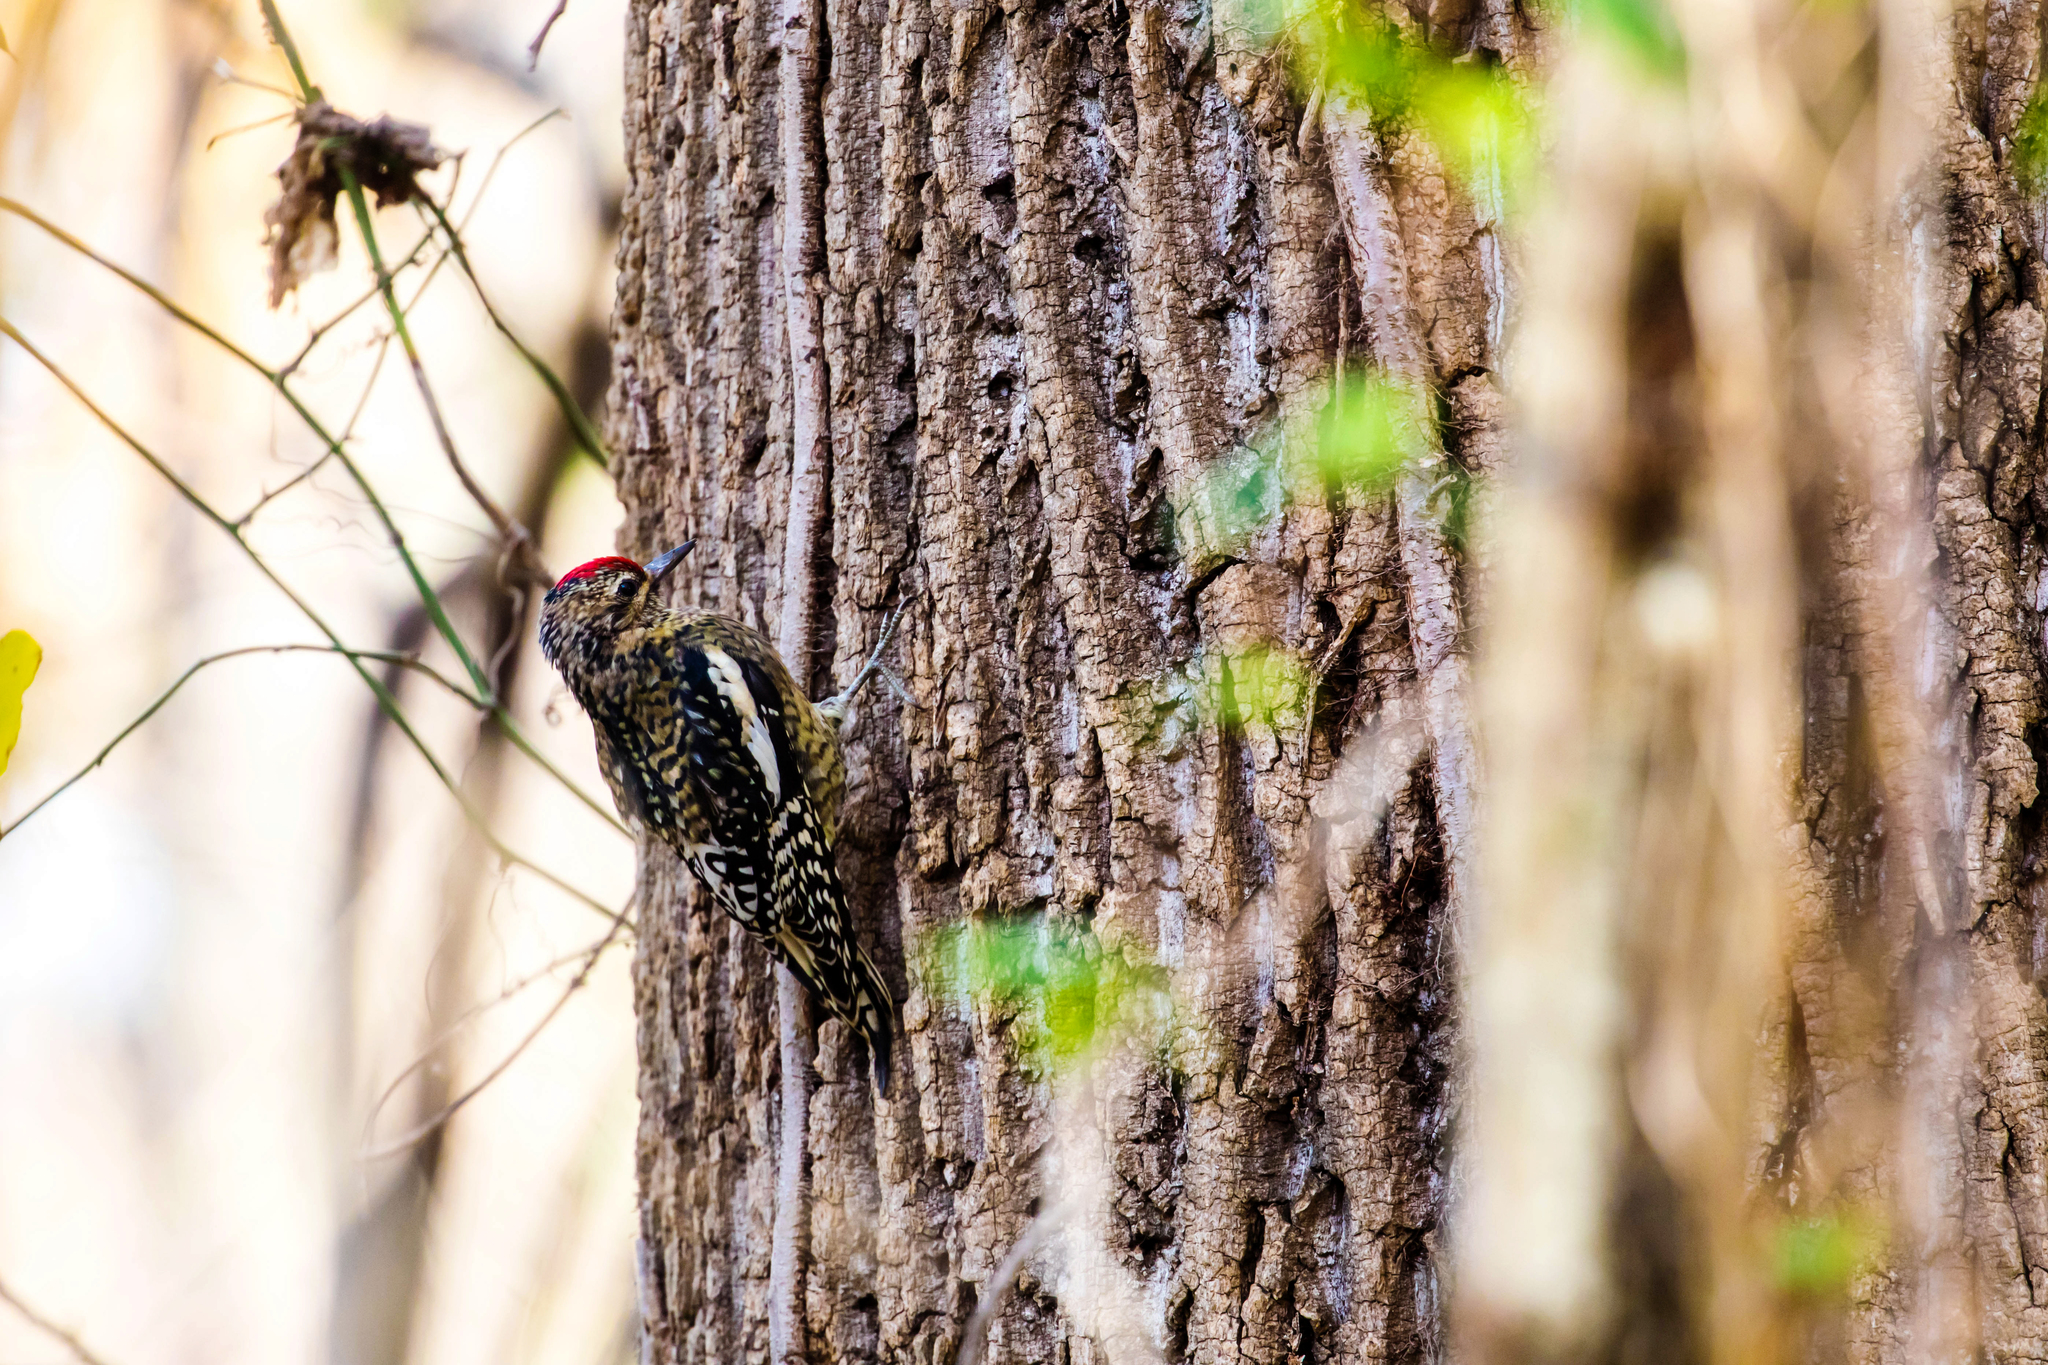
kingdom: Animalia
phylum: Chordata
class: Aves
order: Piciformes
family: Picidae
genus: Sphyrapicus
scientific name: Sphyrapicus varius
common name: Yellow-bellied sapsucker
